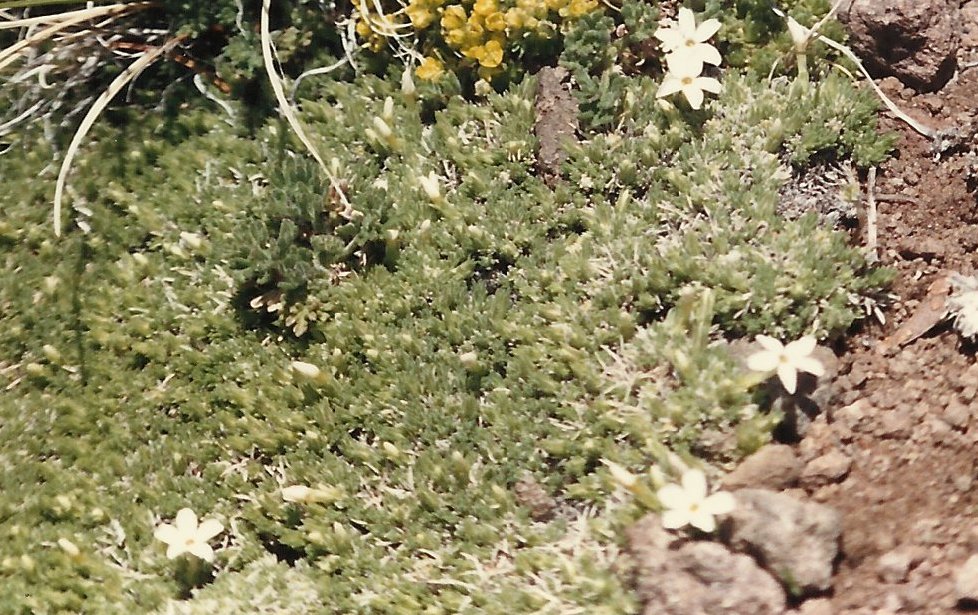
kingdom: Plantae
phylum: Tracheophyta
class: Magnoliopsida
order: Ericales
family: Polemoniaceae
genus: Phlox
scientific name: Phlox condensata
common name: Compact phlox
